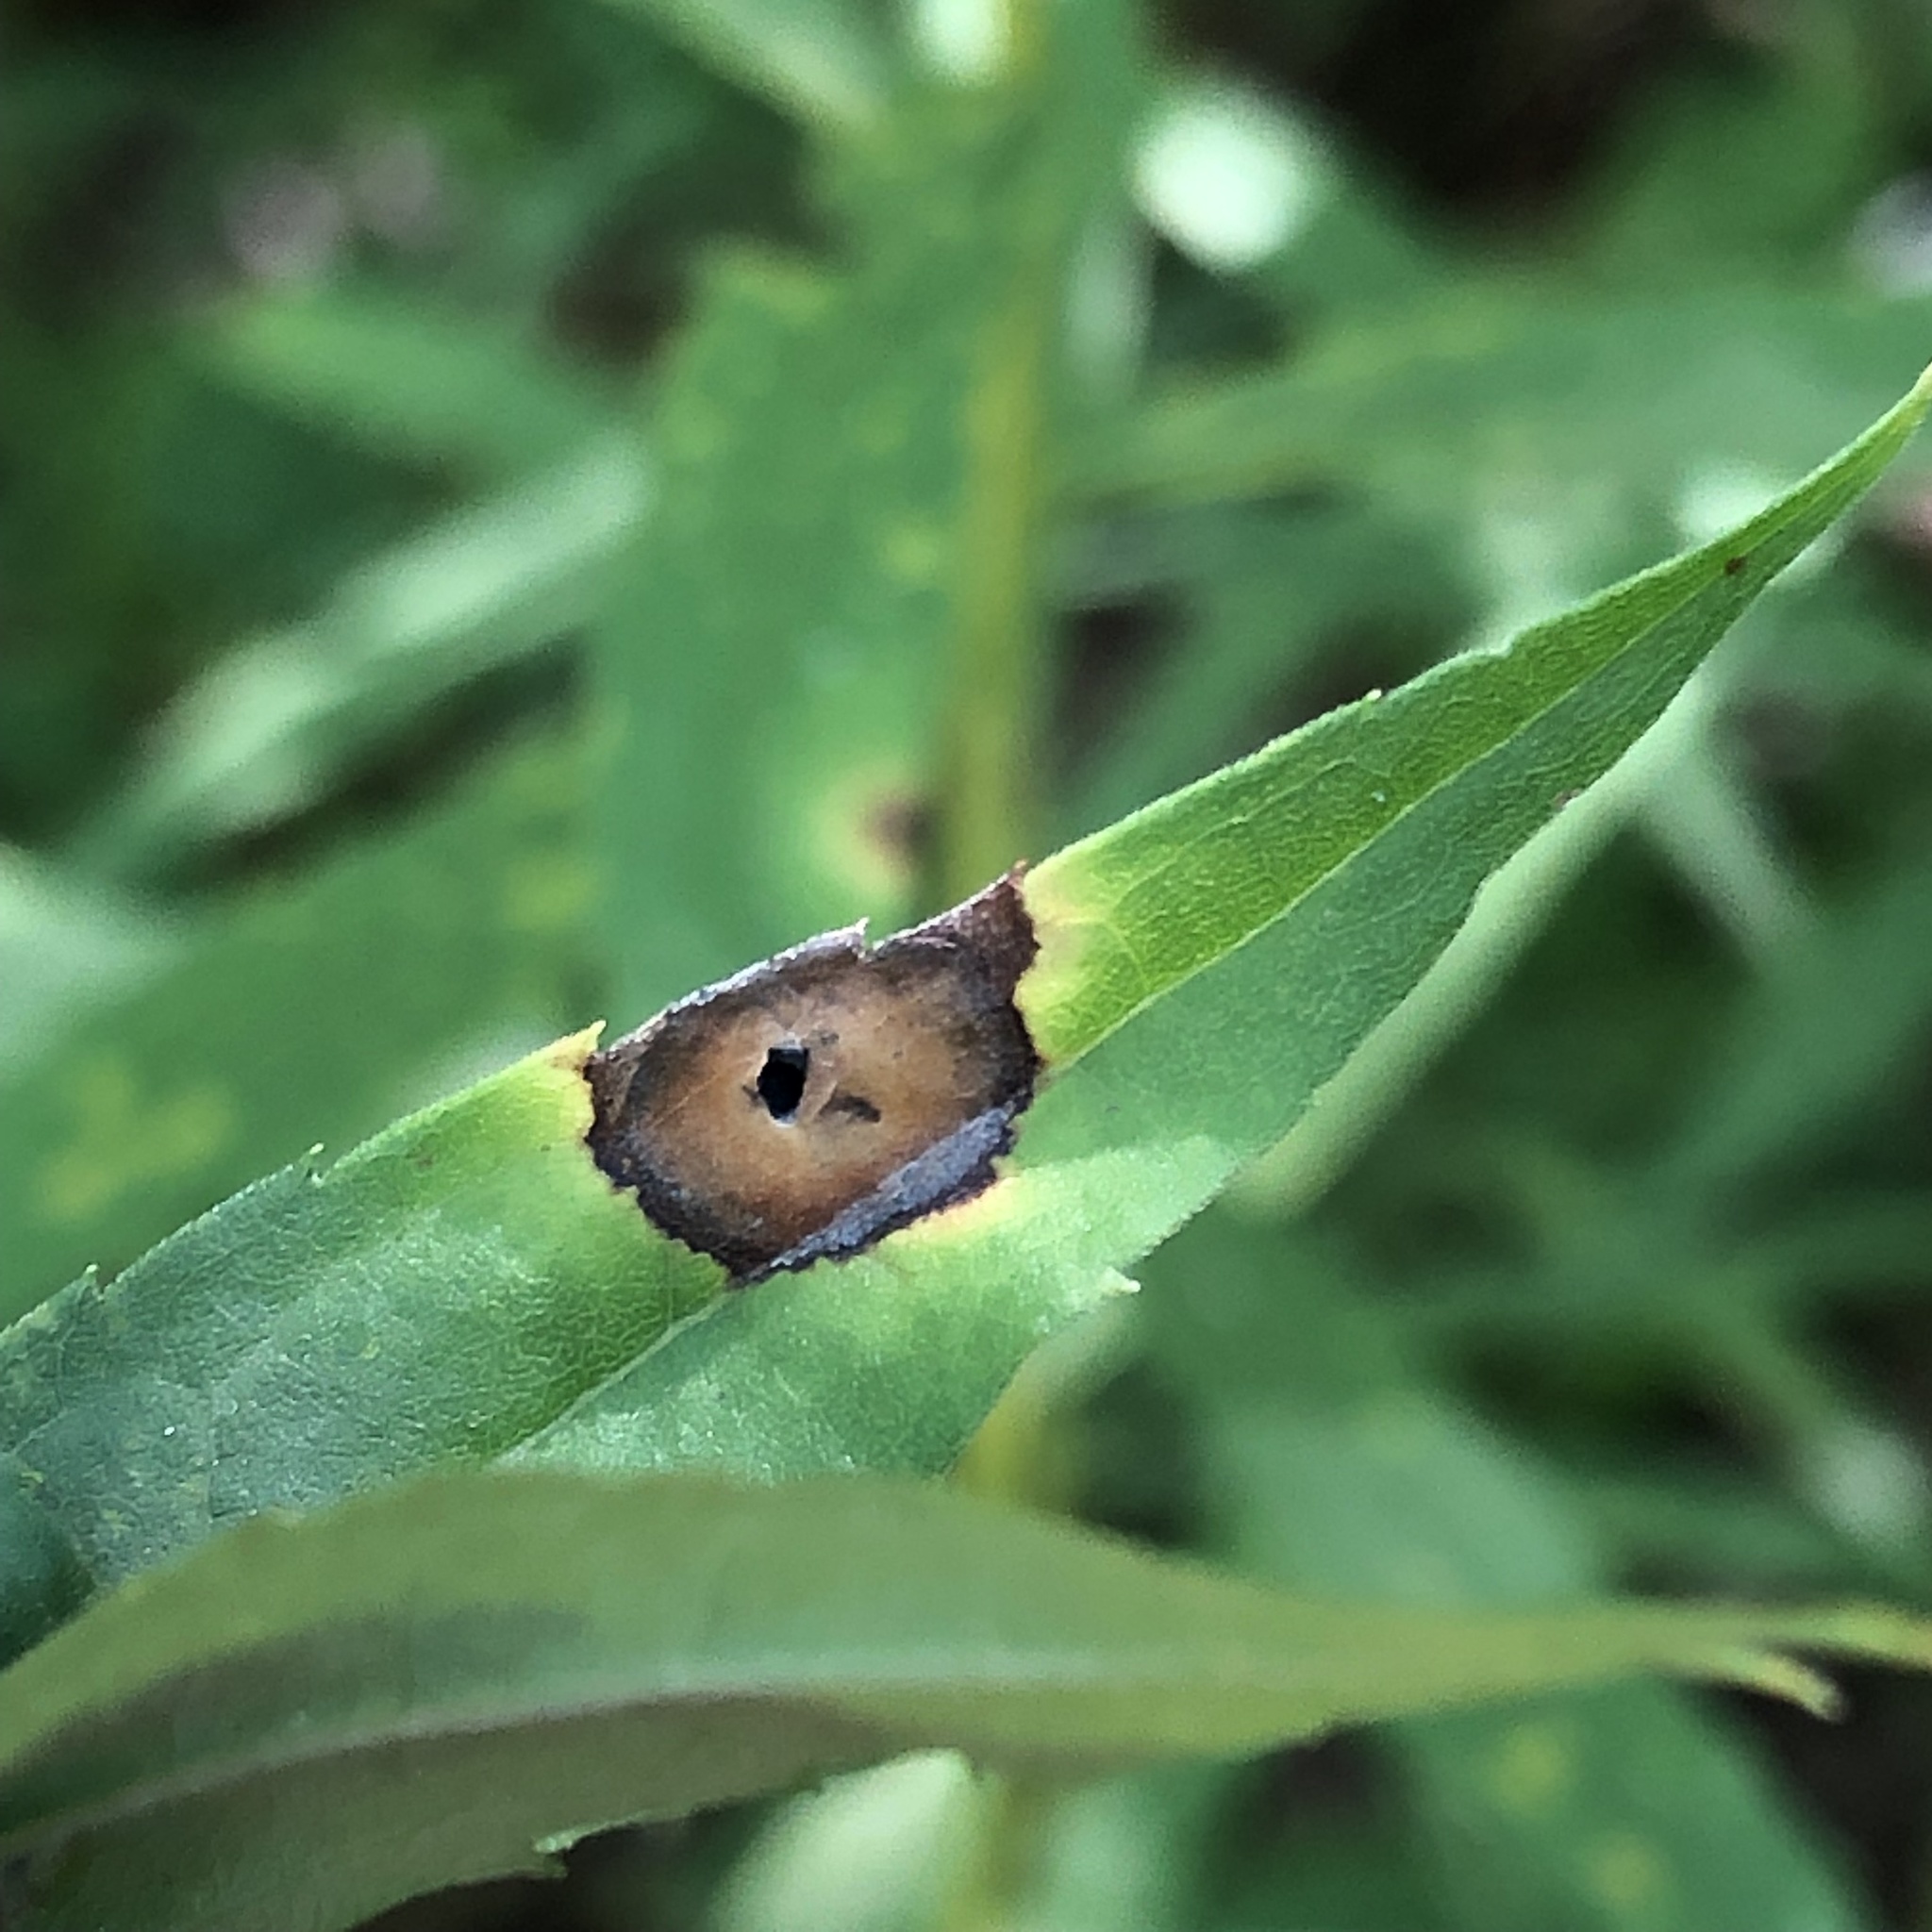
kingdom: Animalia
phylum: Arthropoda
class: Insecta
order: Diptera
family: Cecidomyiidae
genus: Asteromyia
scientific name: Asteromyia carbonifera
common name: Carbonifera goldenrod gall midge
